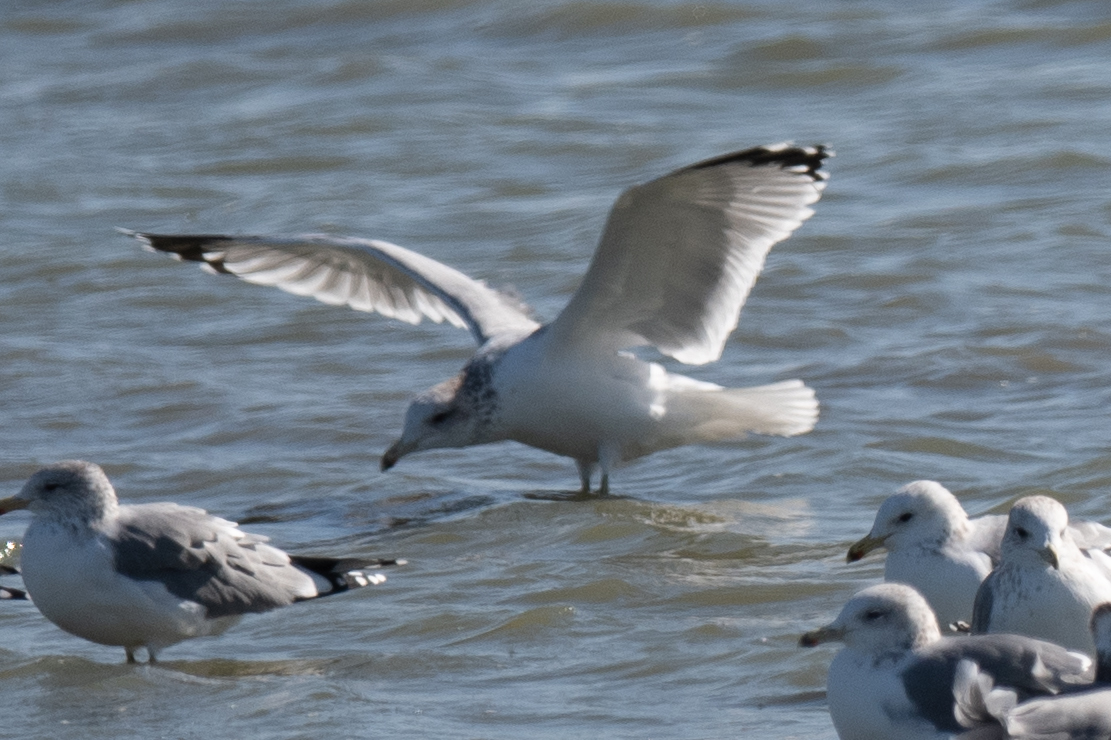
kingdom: Animalia
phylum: Chordata
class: Aves
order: Charadriiformes
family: Laridae
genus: Larus
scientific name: Larus californicus
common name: California gull
